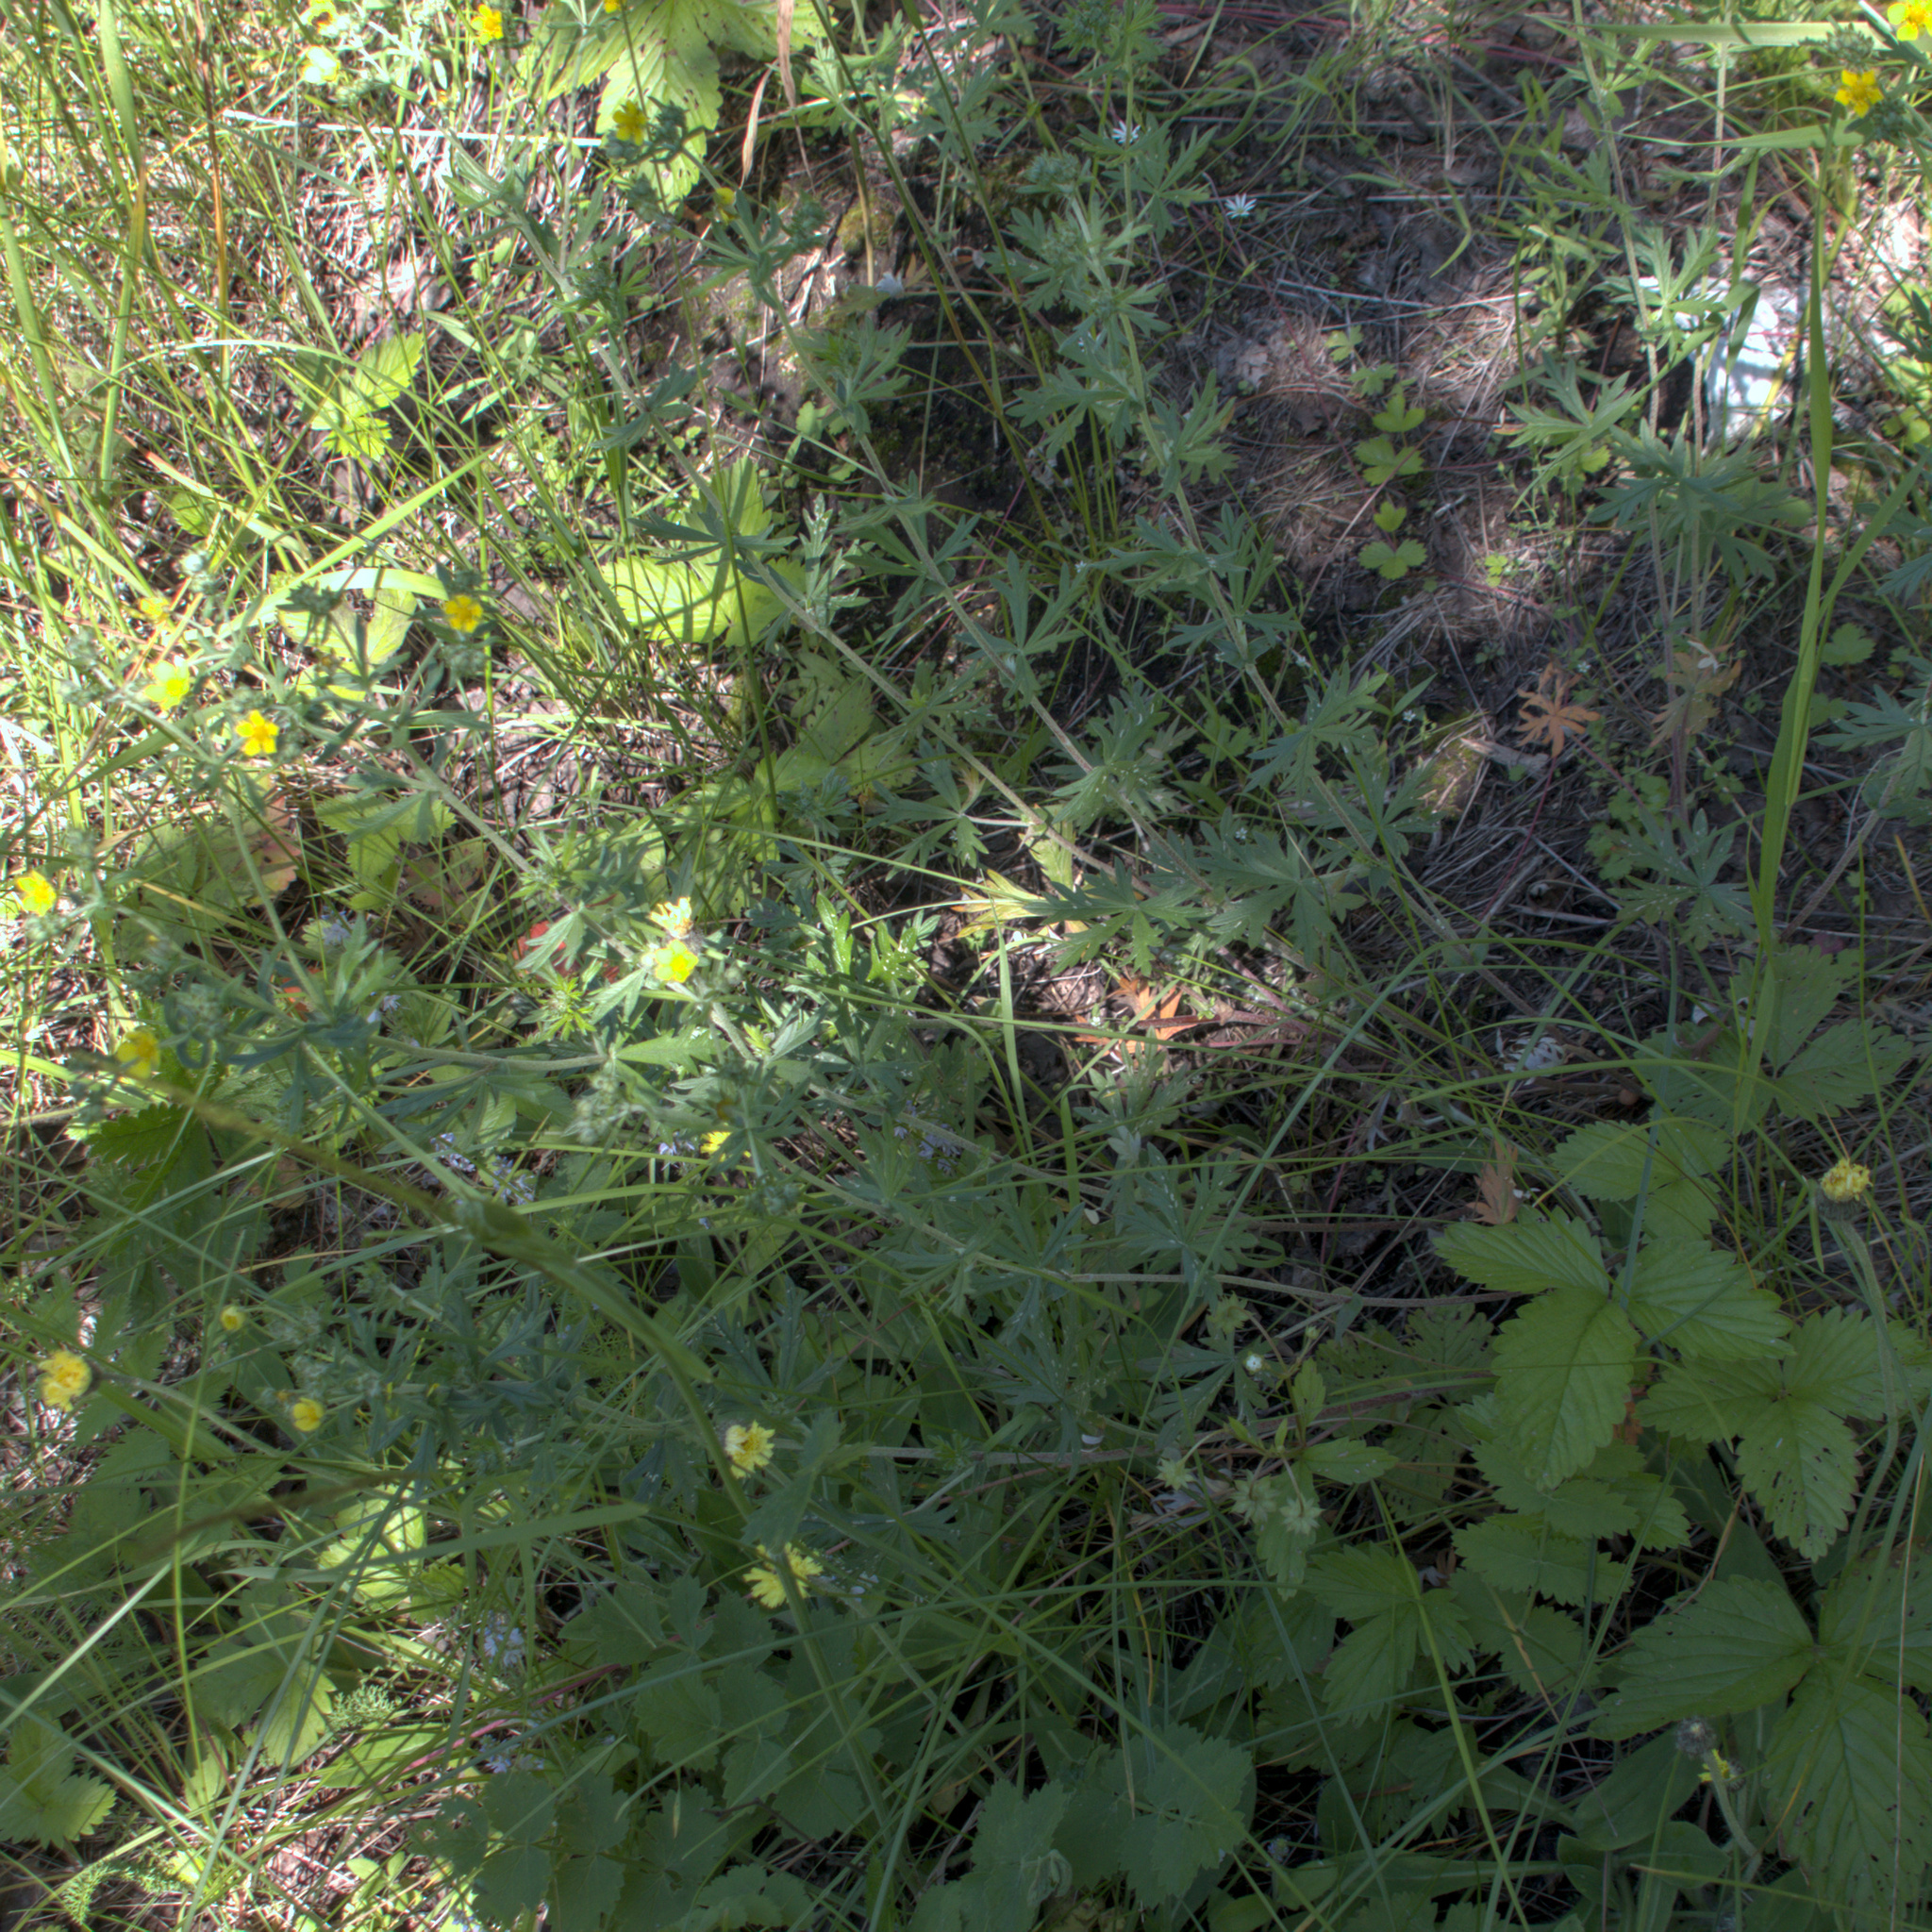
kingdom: Plantae
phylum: Tracheophyta
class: Magnoliopsida
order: Rosales
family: Rosaceae
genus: Potentilla
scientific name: Potentilla argentea
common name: Hoary cinquefoil
